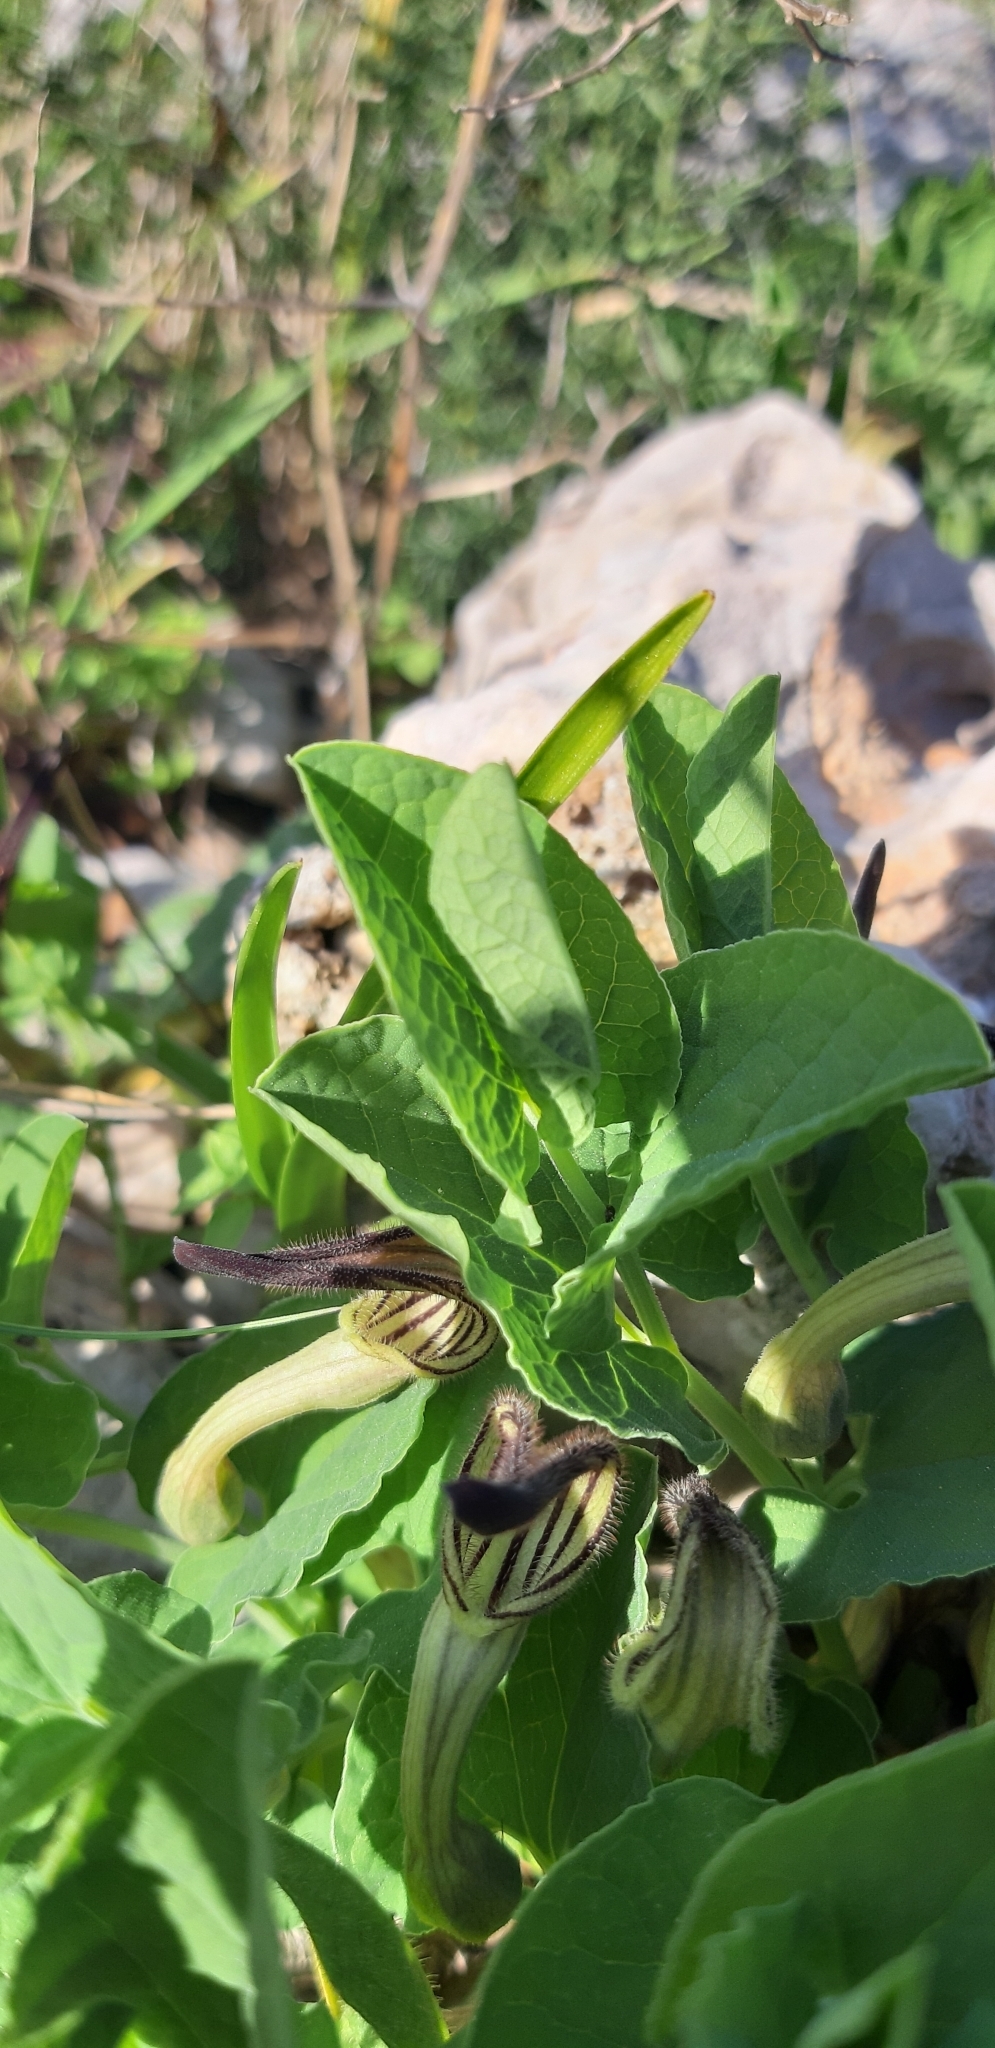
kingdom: Plantae
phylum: Tracheophyta
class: Magnoliopsida
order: Piperales
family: Aristolochiaceae
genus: Aristolochia
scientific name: Aristolochia clusii
